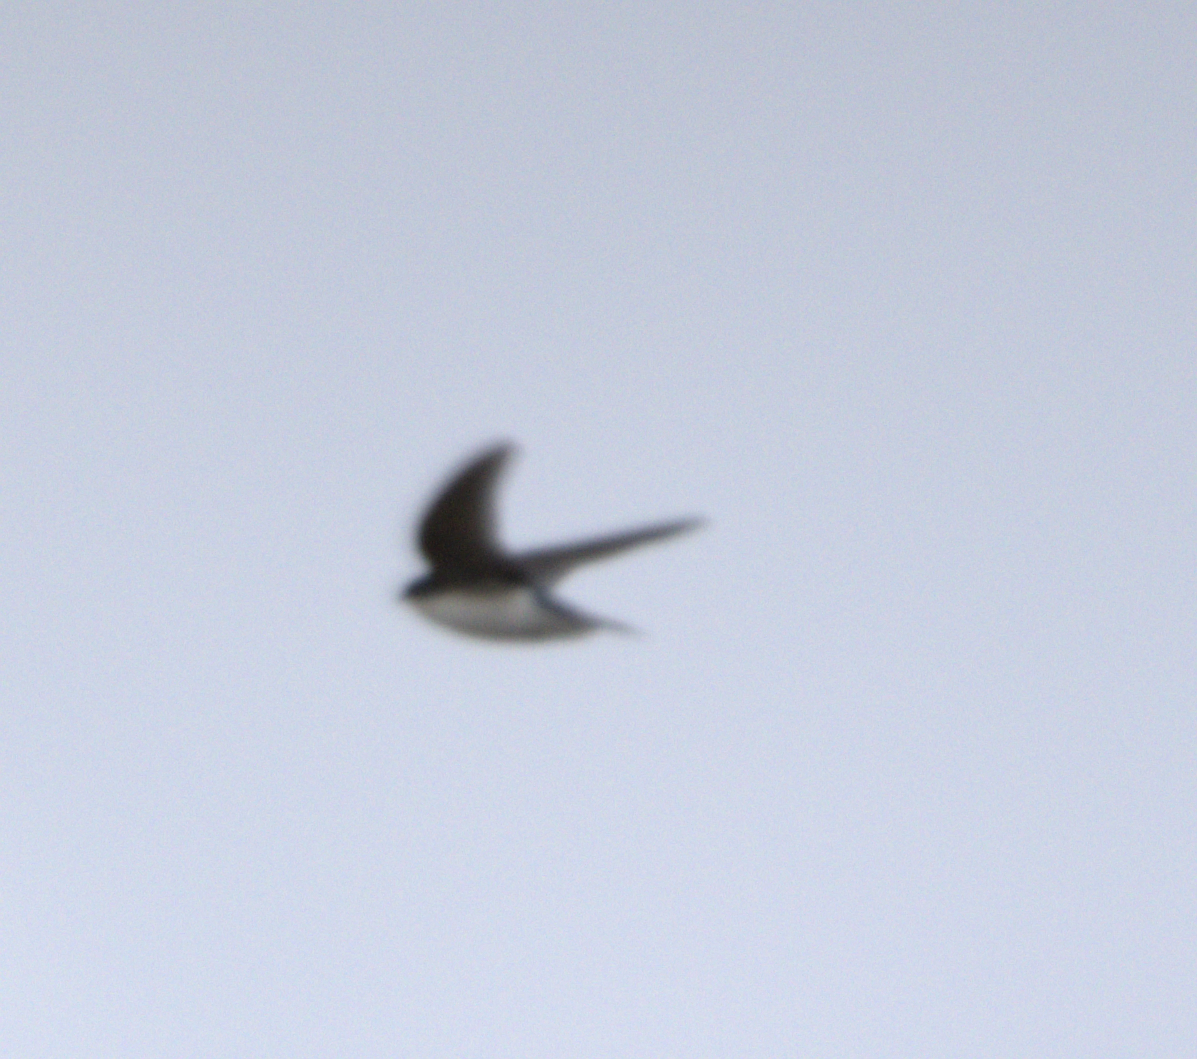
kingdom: Animalia
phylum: Chordata
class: Aves
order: Passeriformes
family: Hirundinidae
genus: Tachycineta
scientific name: Tachycineta bicolor
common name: Tree swallow
